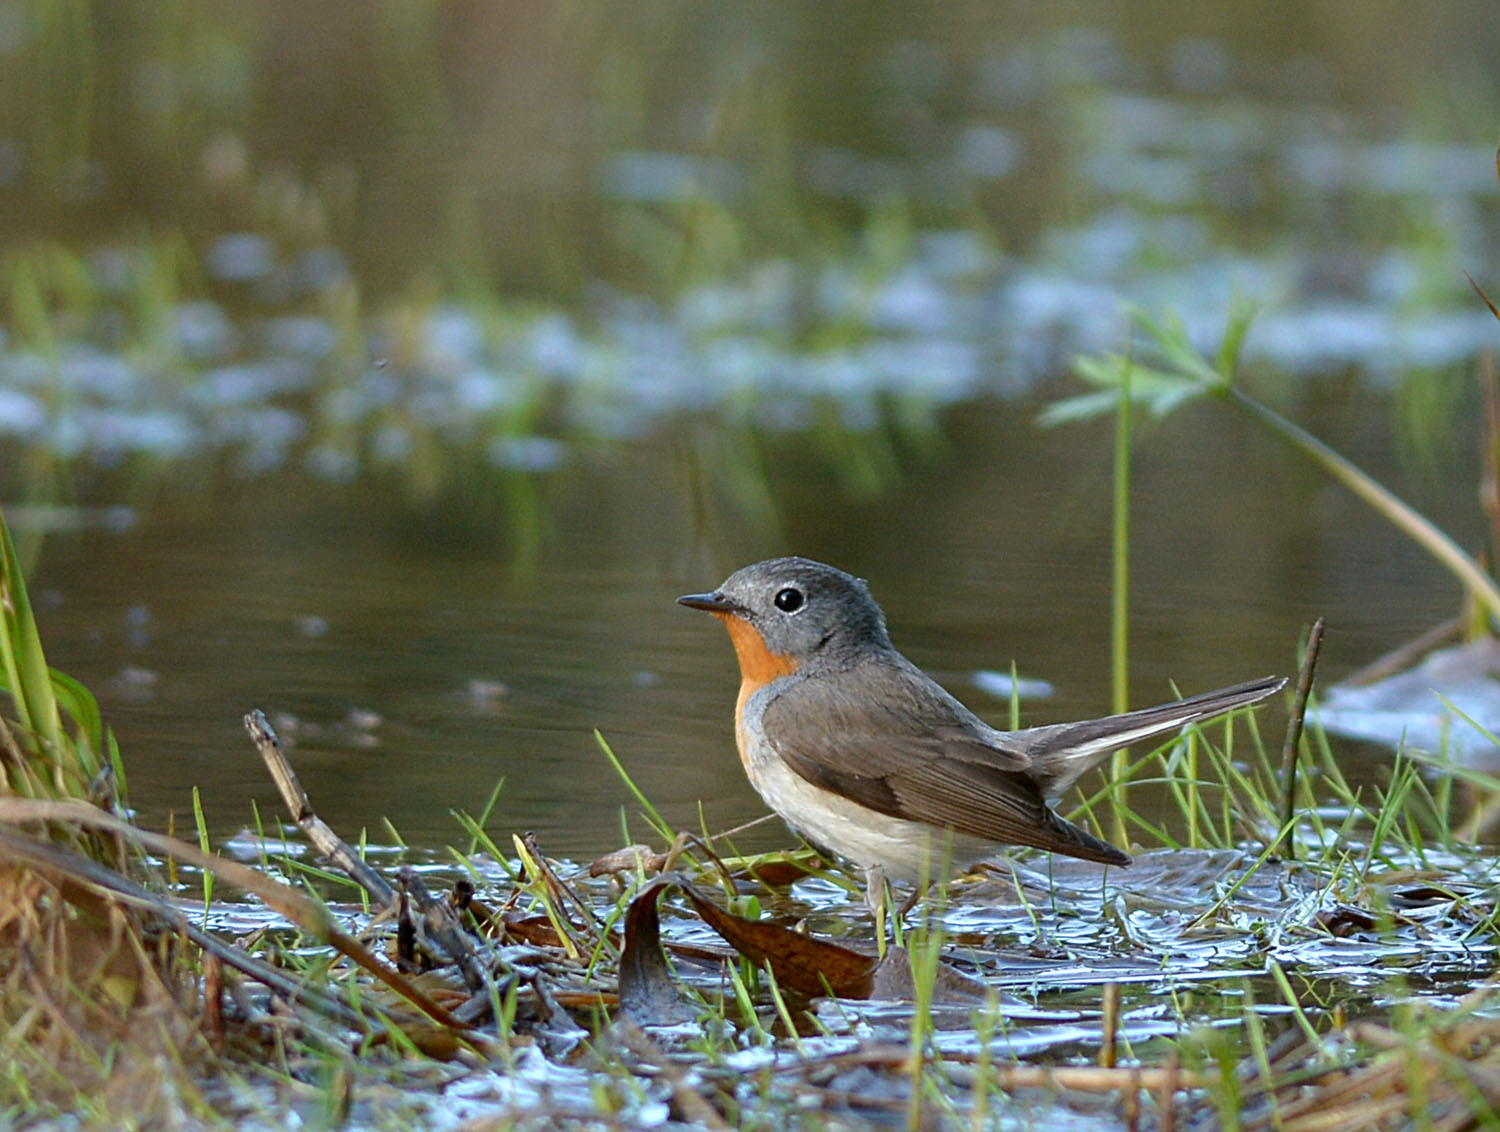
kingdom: Animalia
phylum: Chordata
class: Aves
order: Passeriformes
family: Muscicapidae
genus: Ficedula
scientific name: Ficedula parva
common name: Red-breasted flycatcher
